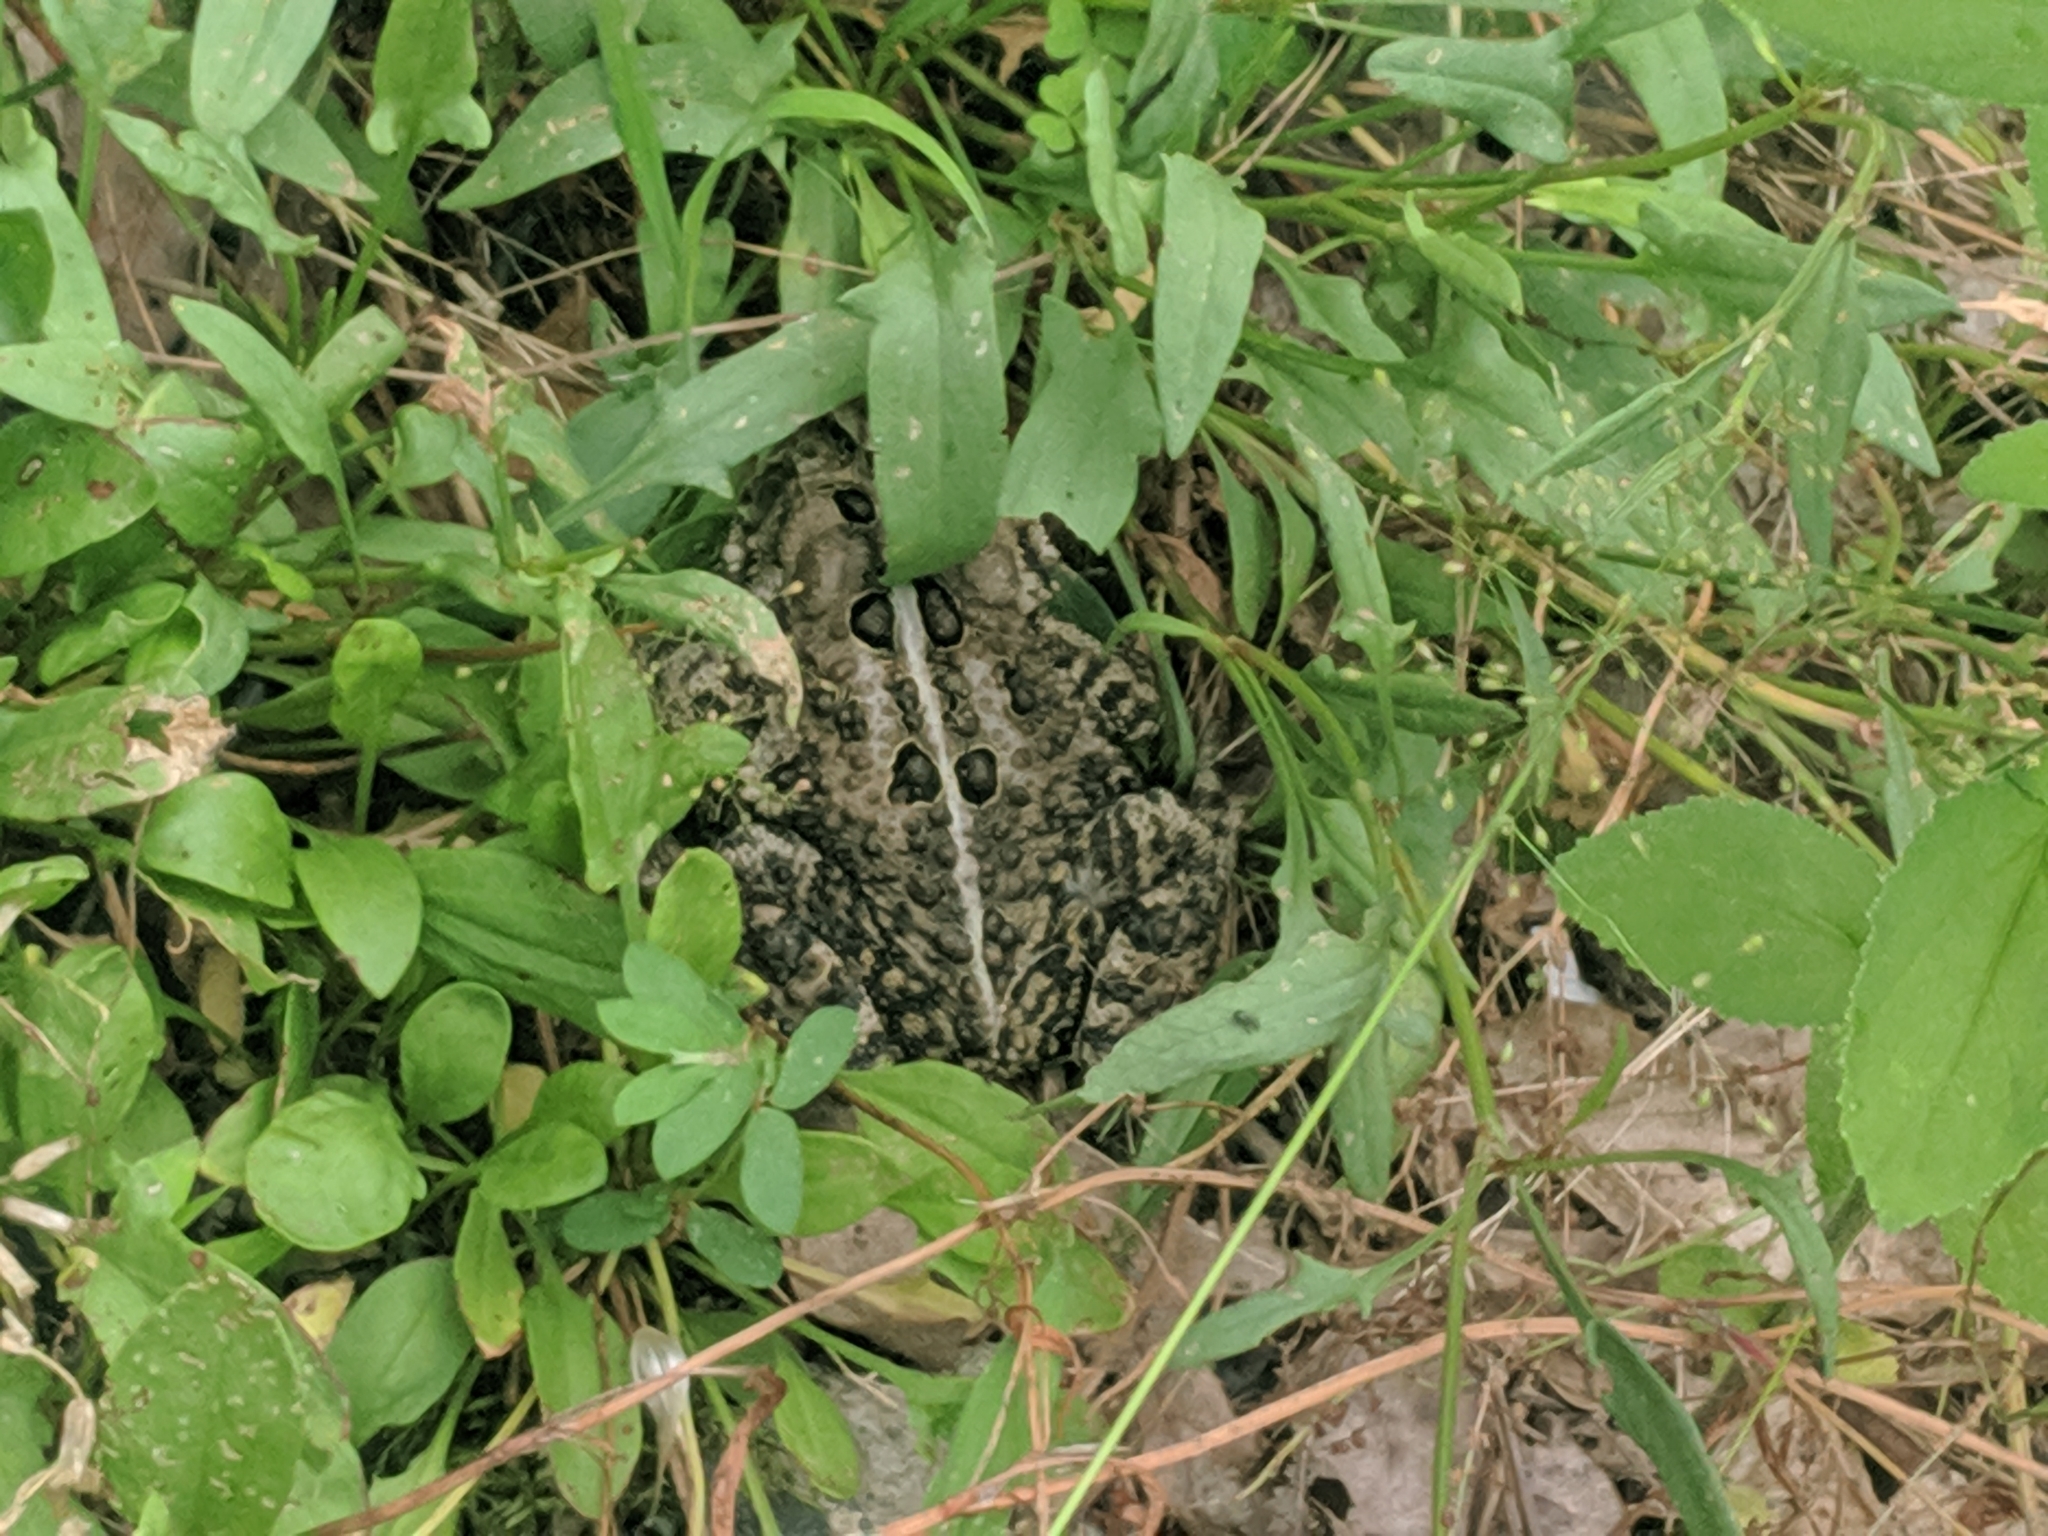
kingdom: Animalia
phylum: Chordata
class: Amphibia
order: Anura
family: Bufonidae
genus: Anaxyrus
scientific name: Anaxyrus americanus
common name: American toad
